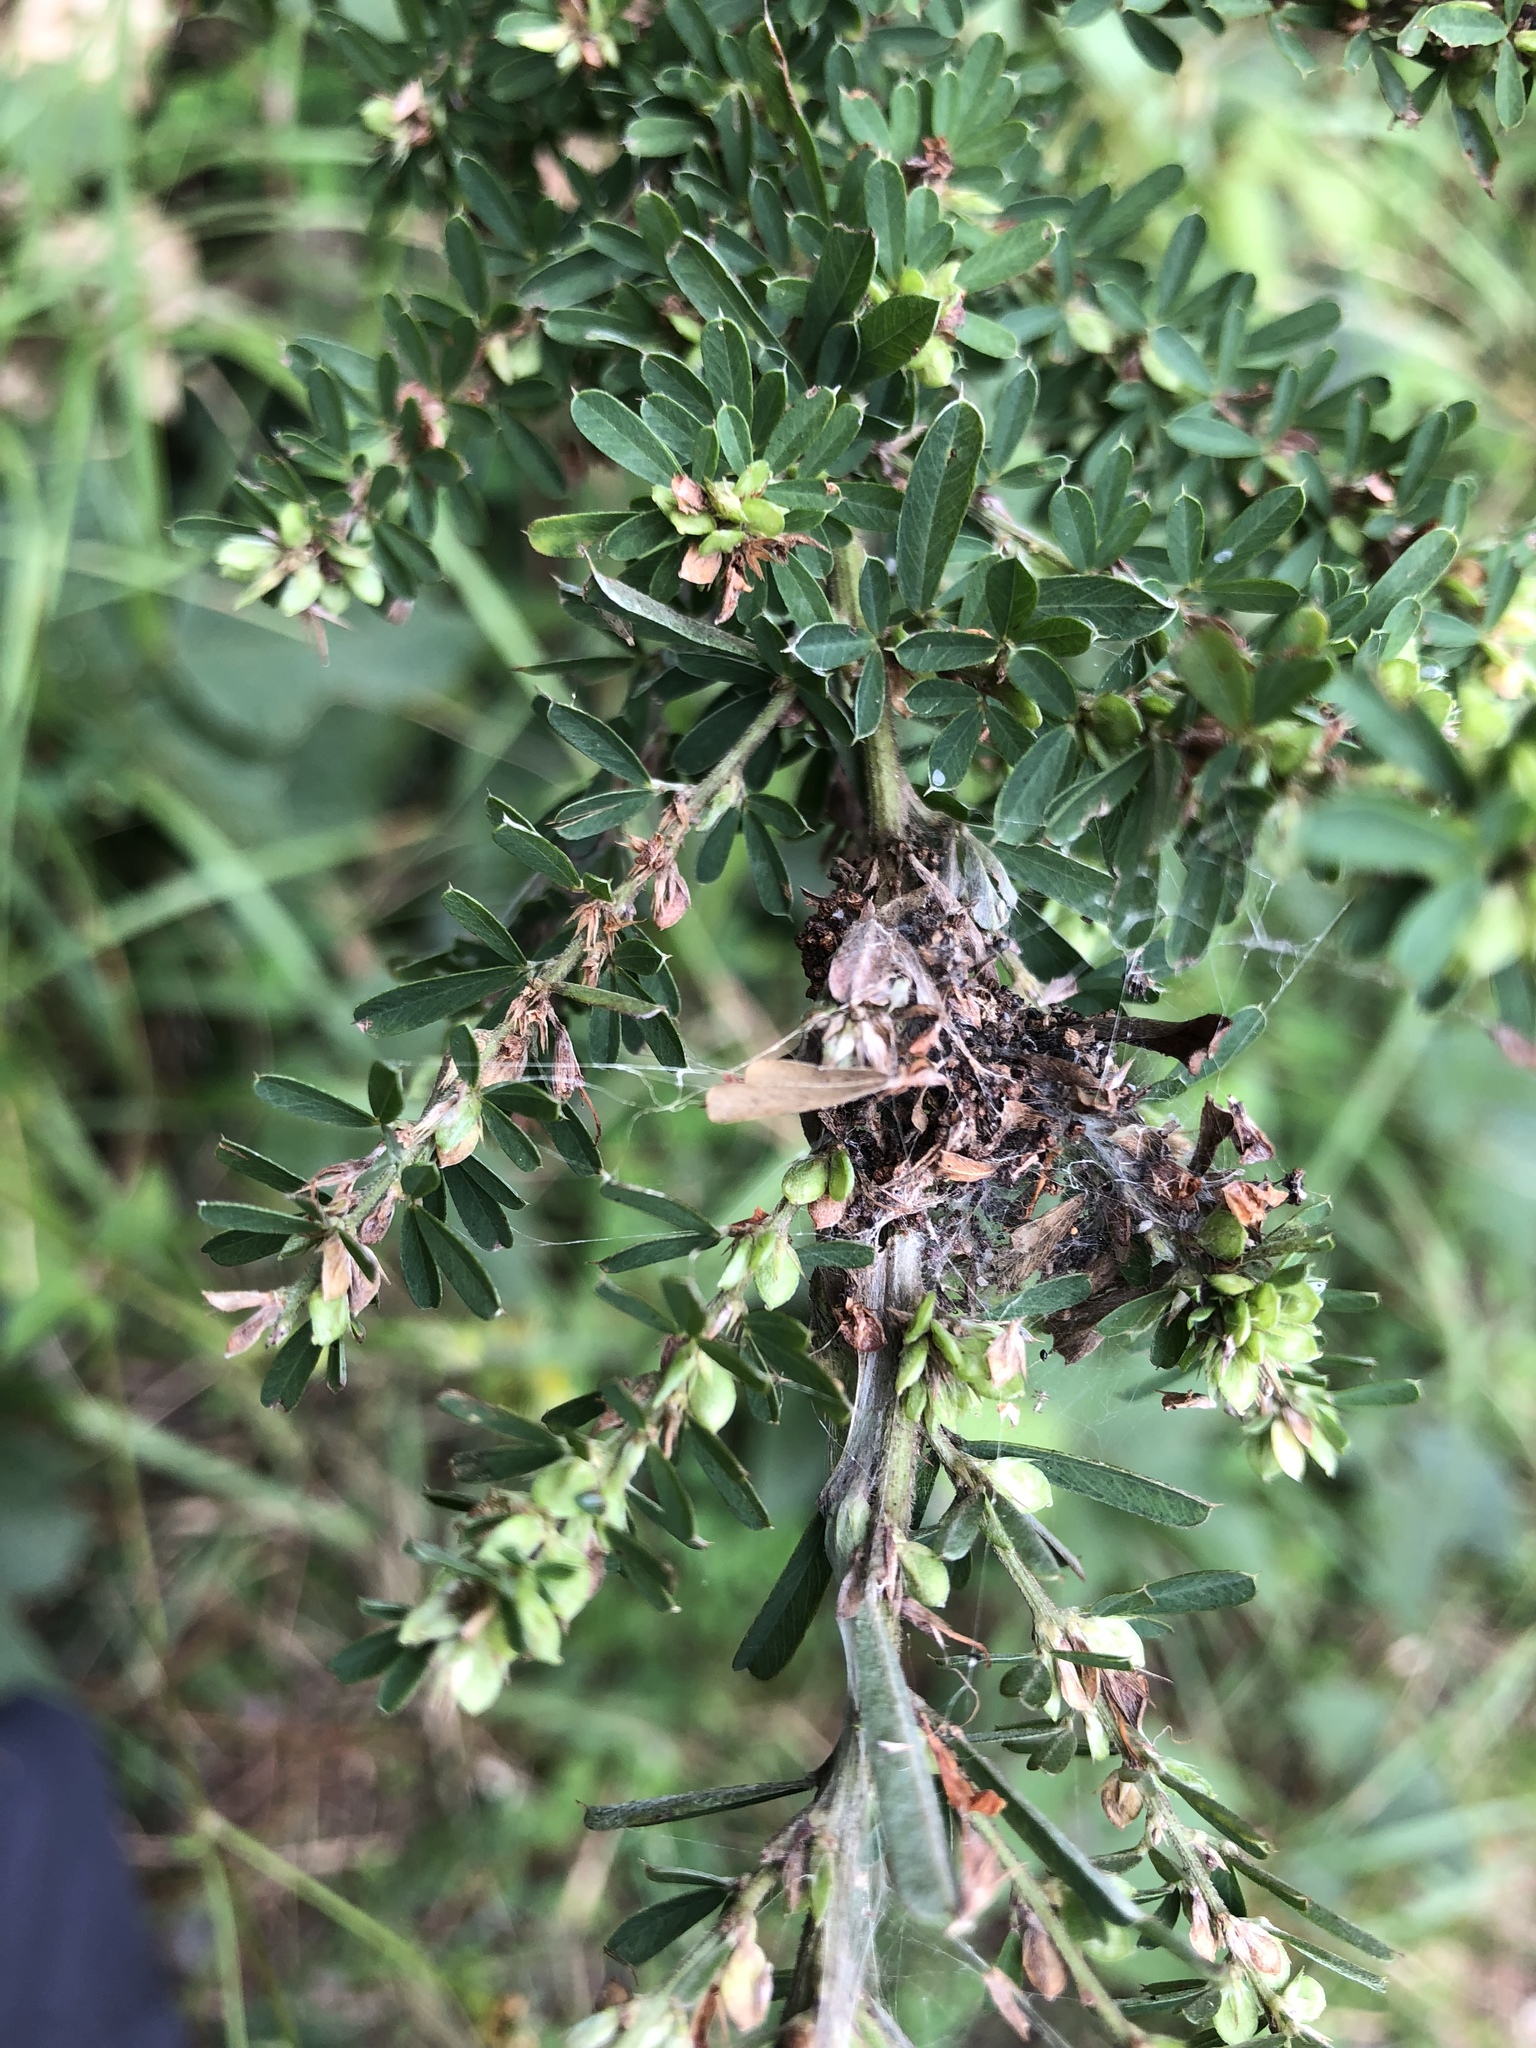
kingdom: Plantae
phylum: Tracheophyta
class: Magnoliopsida
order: Fabales
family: Fabaceae
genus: Lespedeza
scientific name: Lespedeza cuneata
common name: Chinese bush-clover
